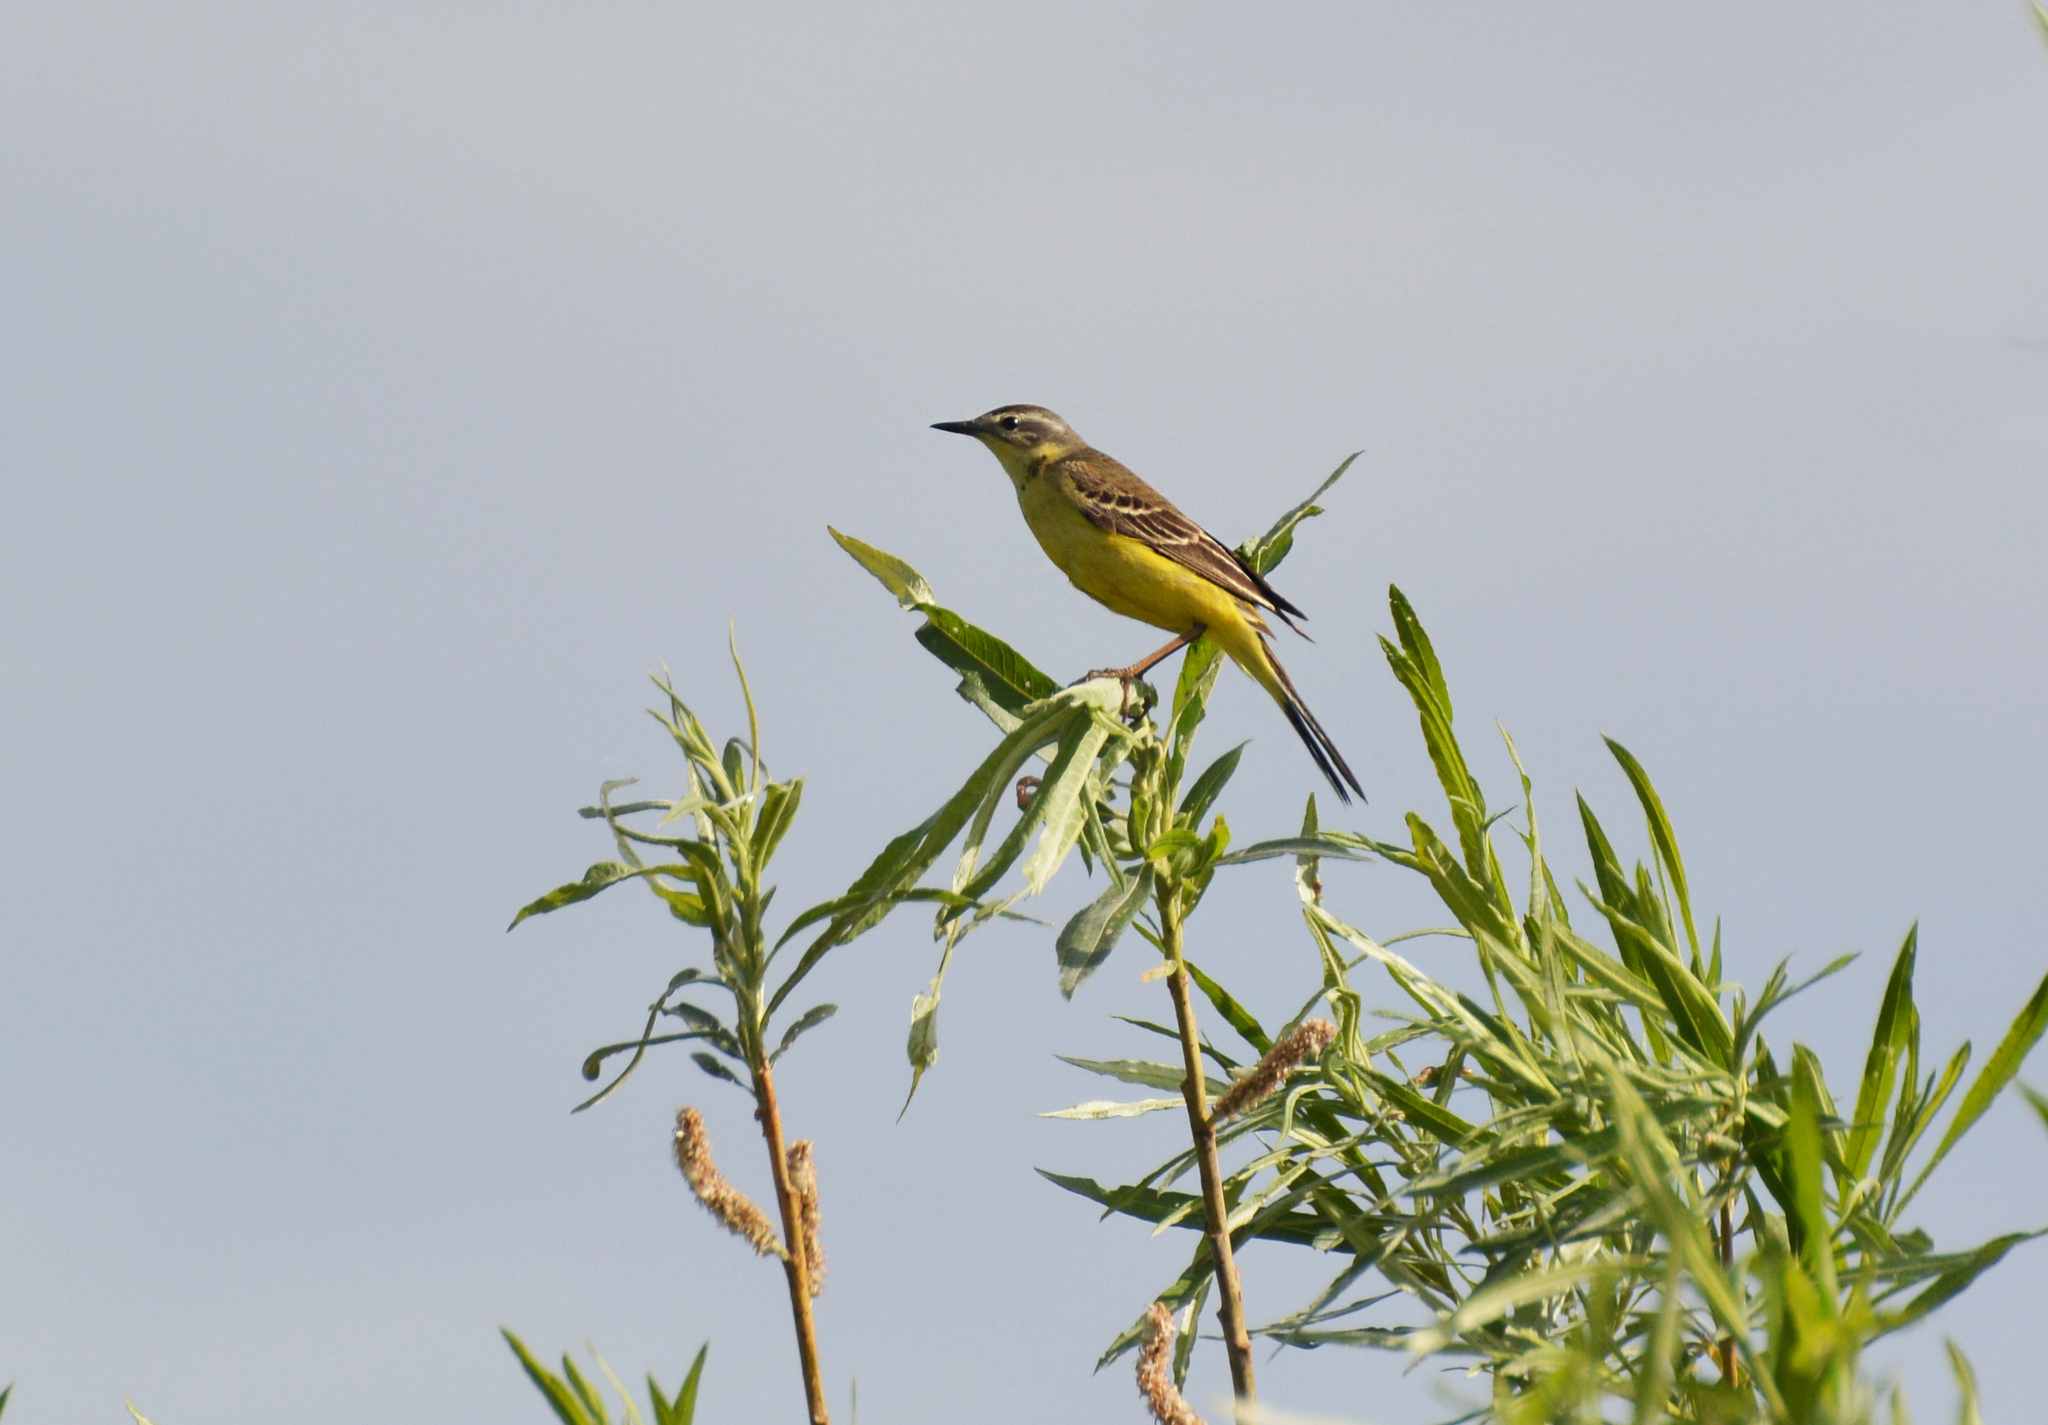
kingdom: Animalia
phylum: Chordata
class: Aves
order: Passeriformes
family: Motacillidae
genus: Motacilla
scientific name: Motacilla flava
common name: Western yellow wagtail
